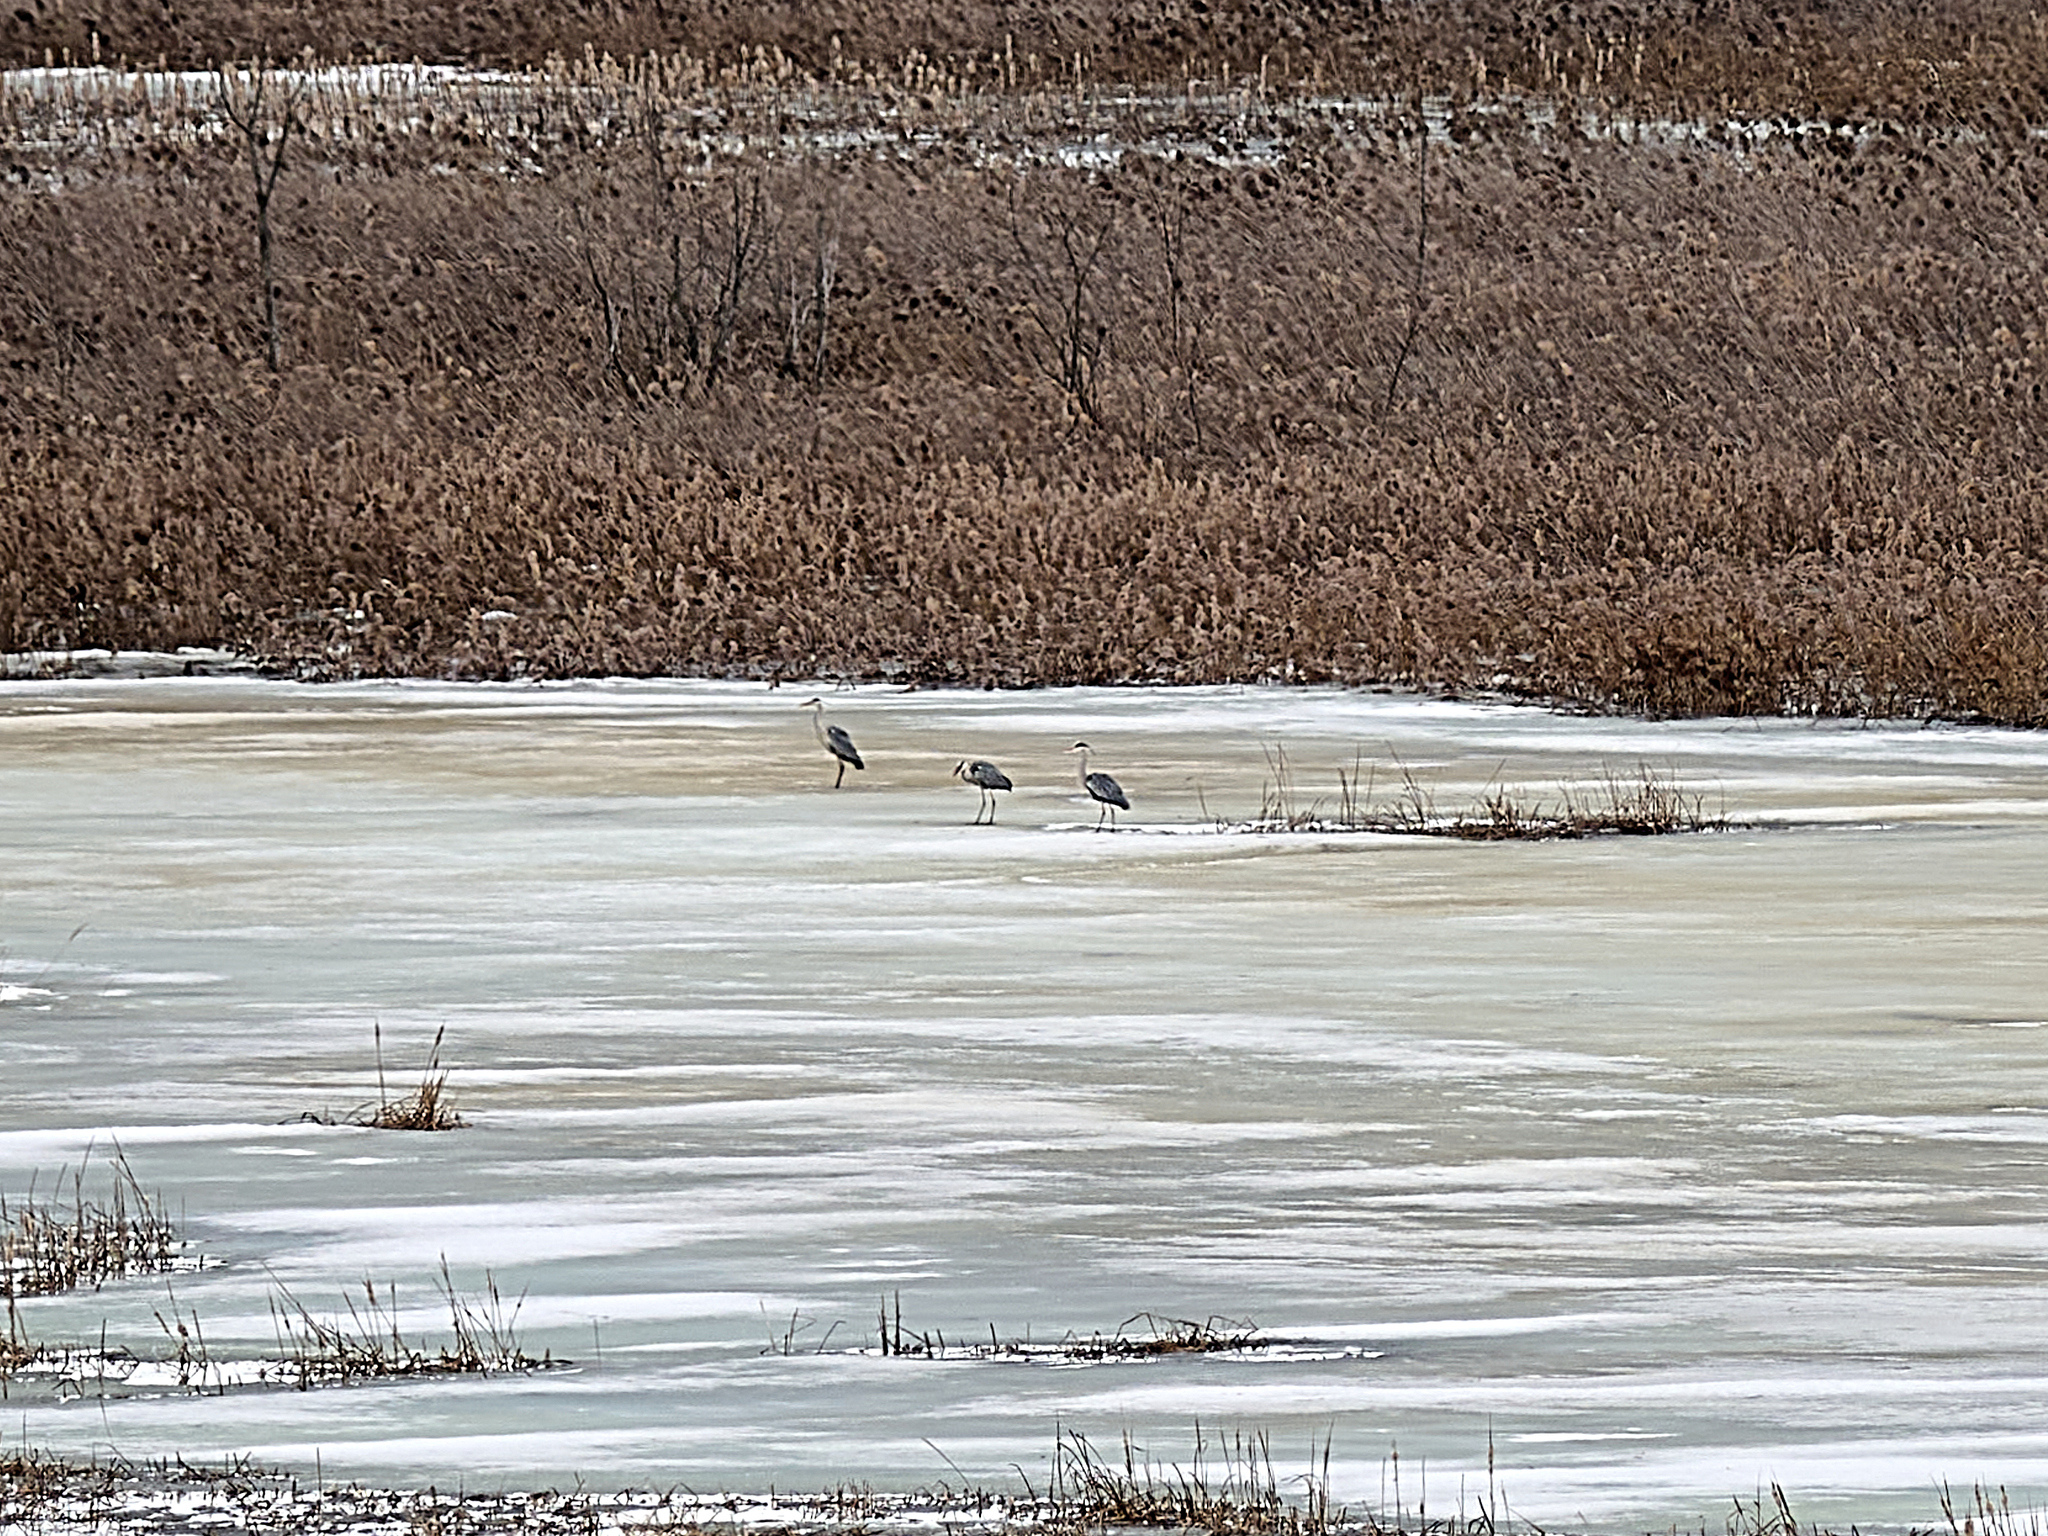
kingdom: Animalia
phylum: Chordata
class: Aves
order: Pelecaniformes
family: Ardeidae
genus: Ardea
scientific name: Ardea cinerea
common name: Grey heron
